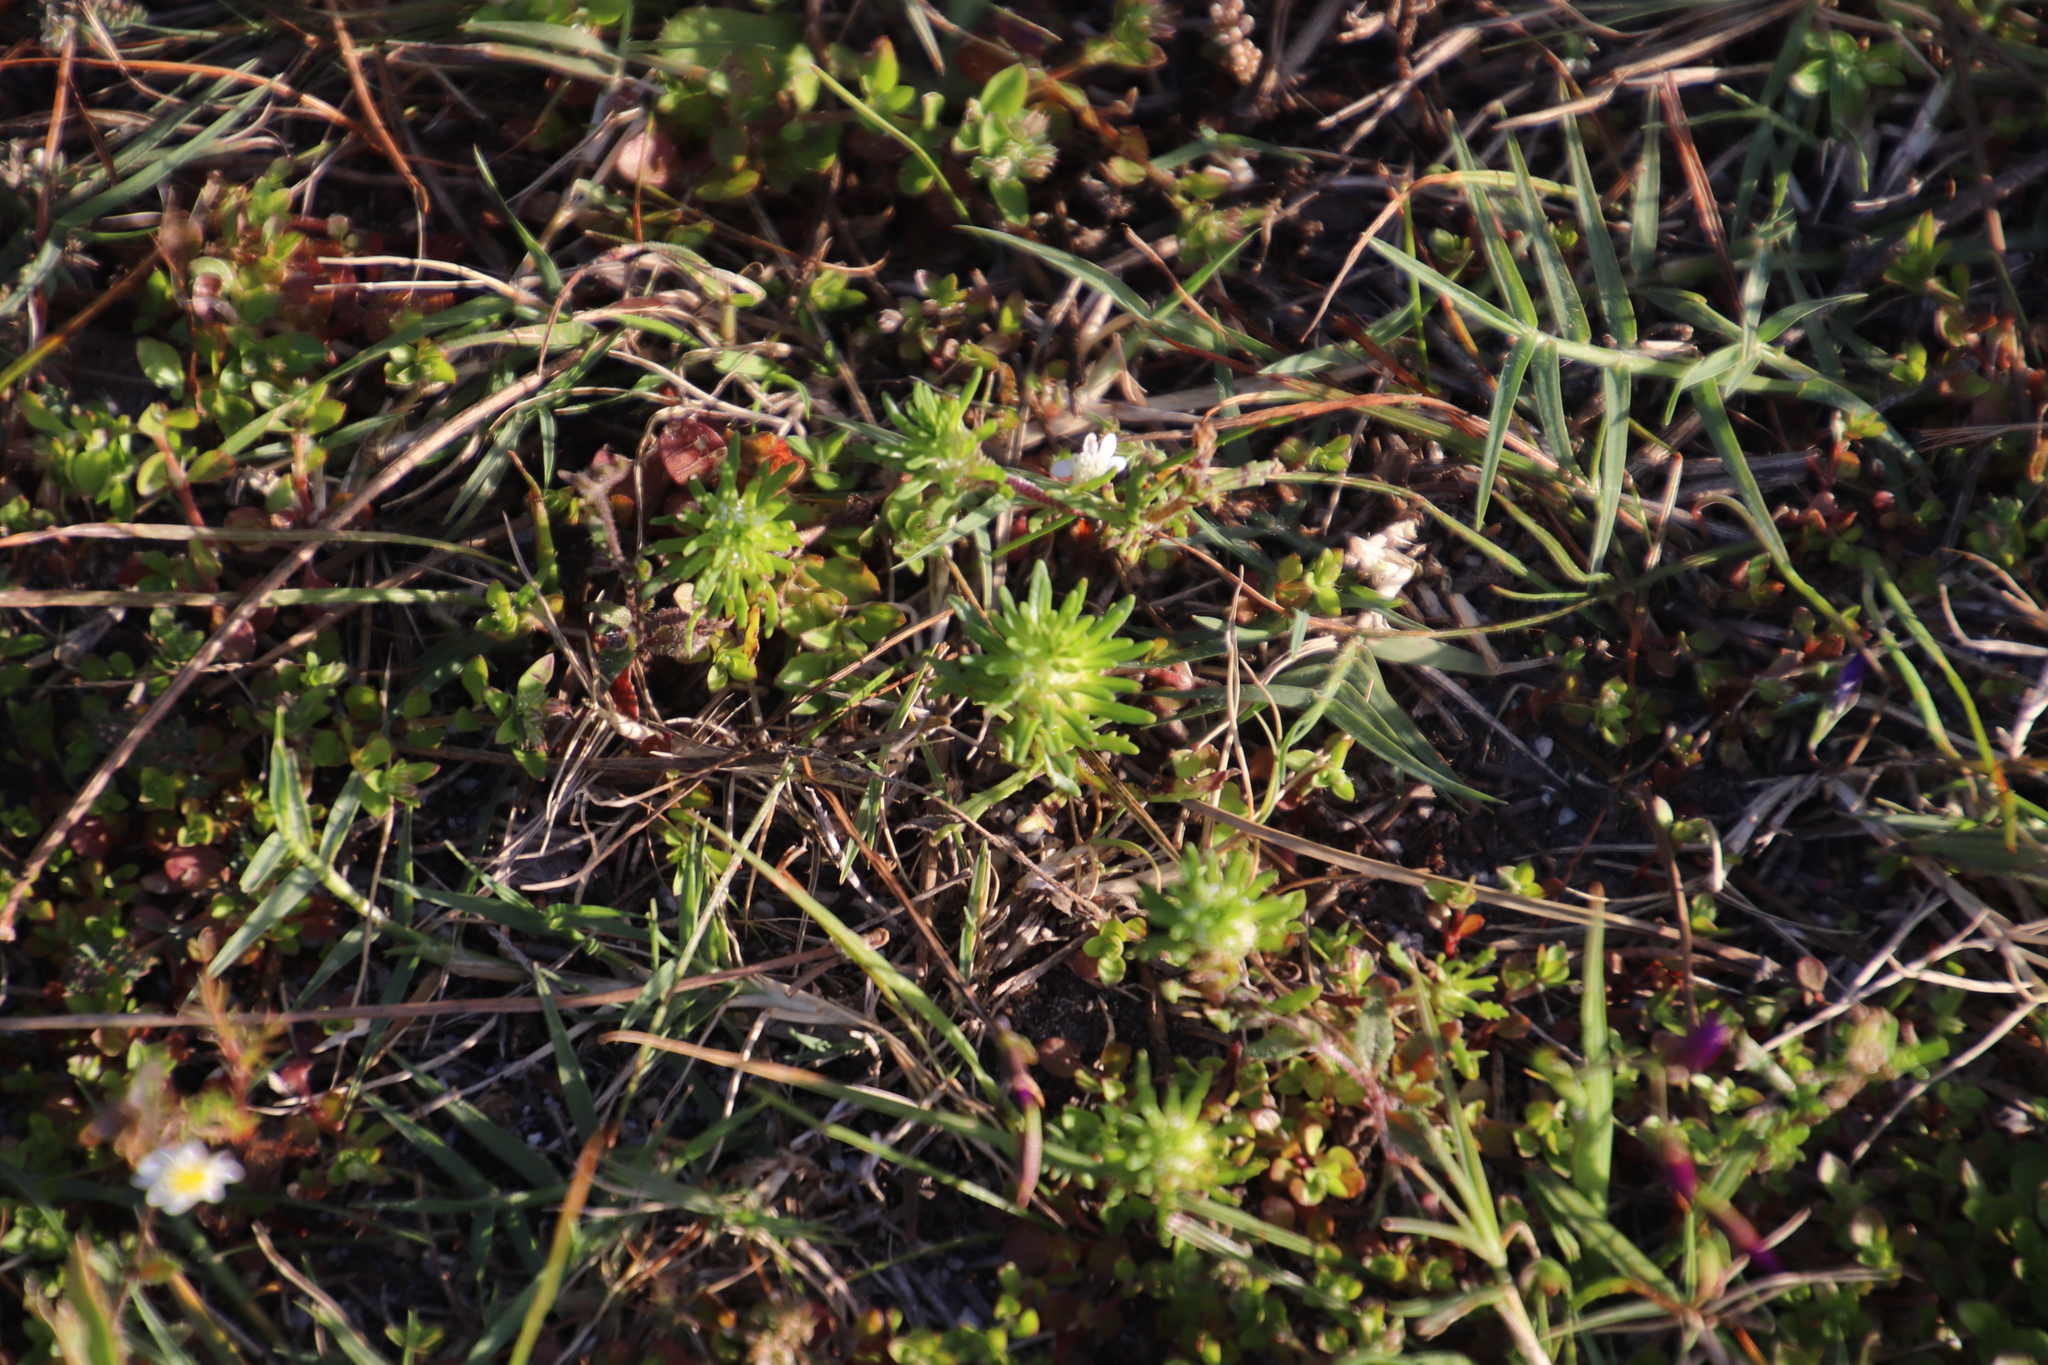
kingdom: Plantae
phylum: Tracheophyta
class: Magnoliopsida
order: Lamiales
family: Scrophulariaceae
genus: Dischisma
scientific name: Dischisma capitatum
